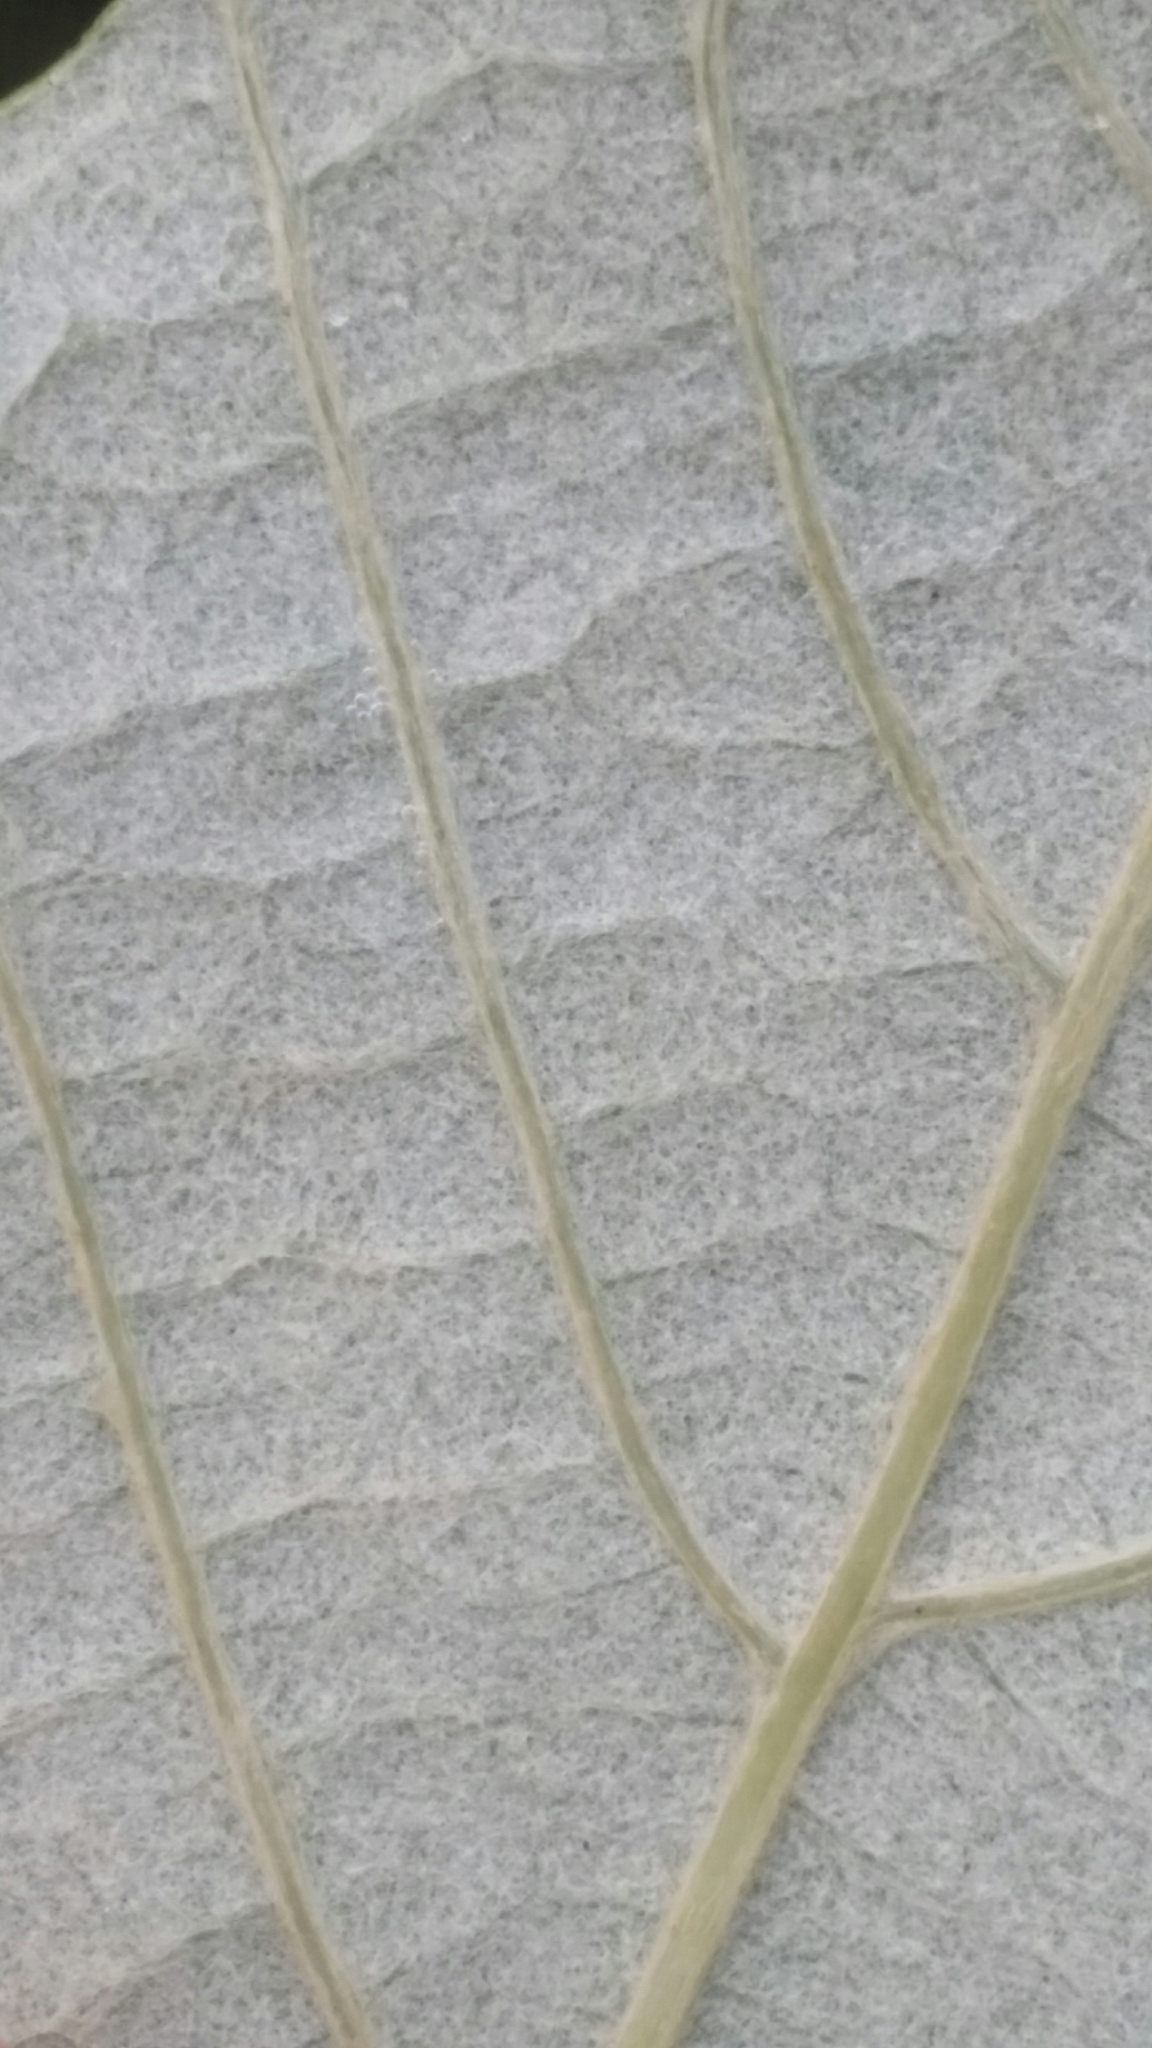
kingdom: Plantae
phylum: Tracheophyta
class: Magnoliopsida
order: Vitales
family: Vitaceae
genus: Vitis
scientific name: Vitis shuttleworthii
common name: Caloosa grape
